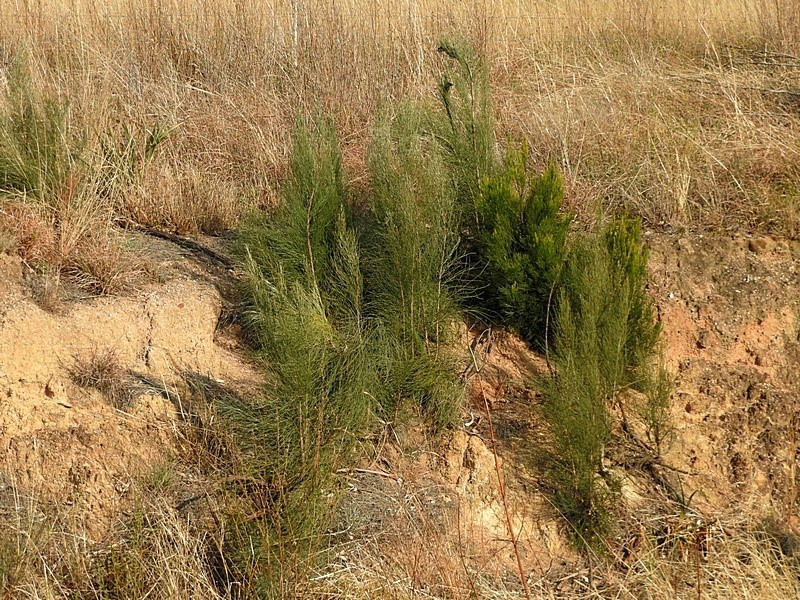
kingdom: Plantae
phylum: Tracheophyta
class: Magnoliopsida
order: Fabales
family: Fabaceae
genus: Jacksonia
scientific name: Jacksonia scoparia
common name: Dogwood
